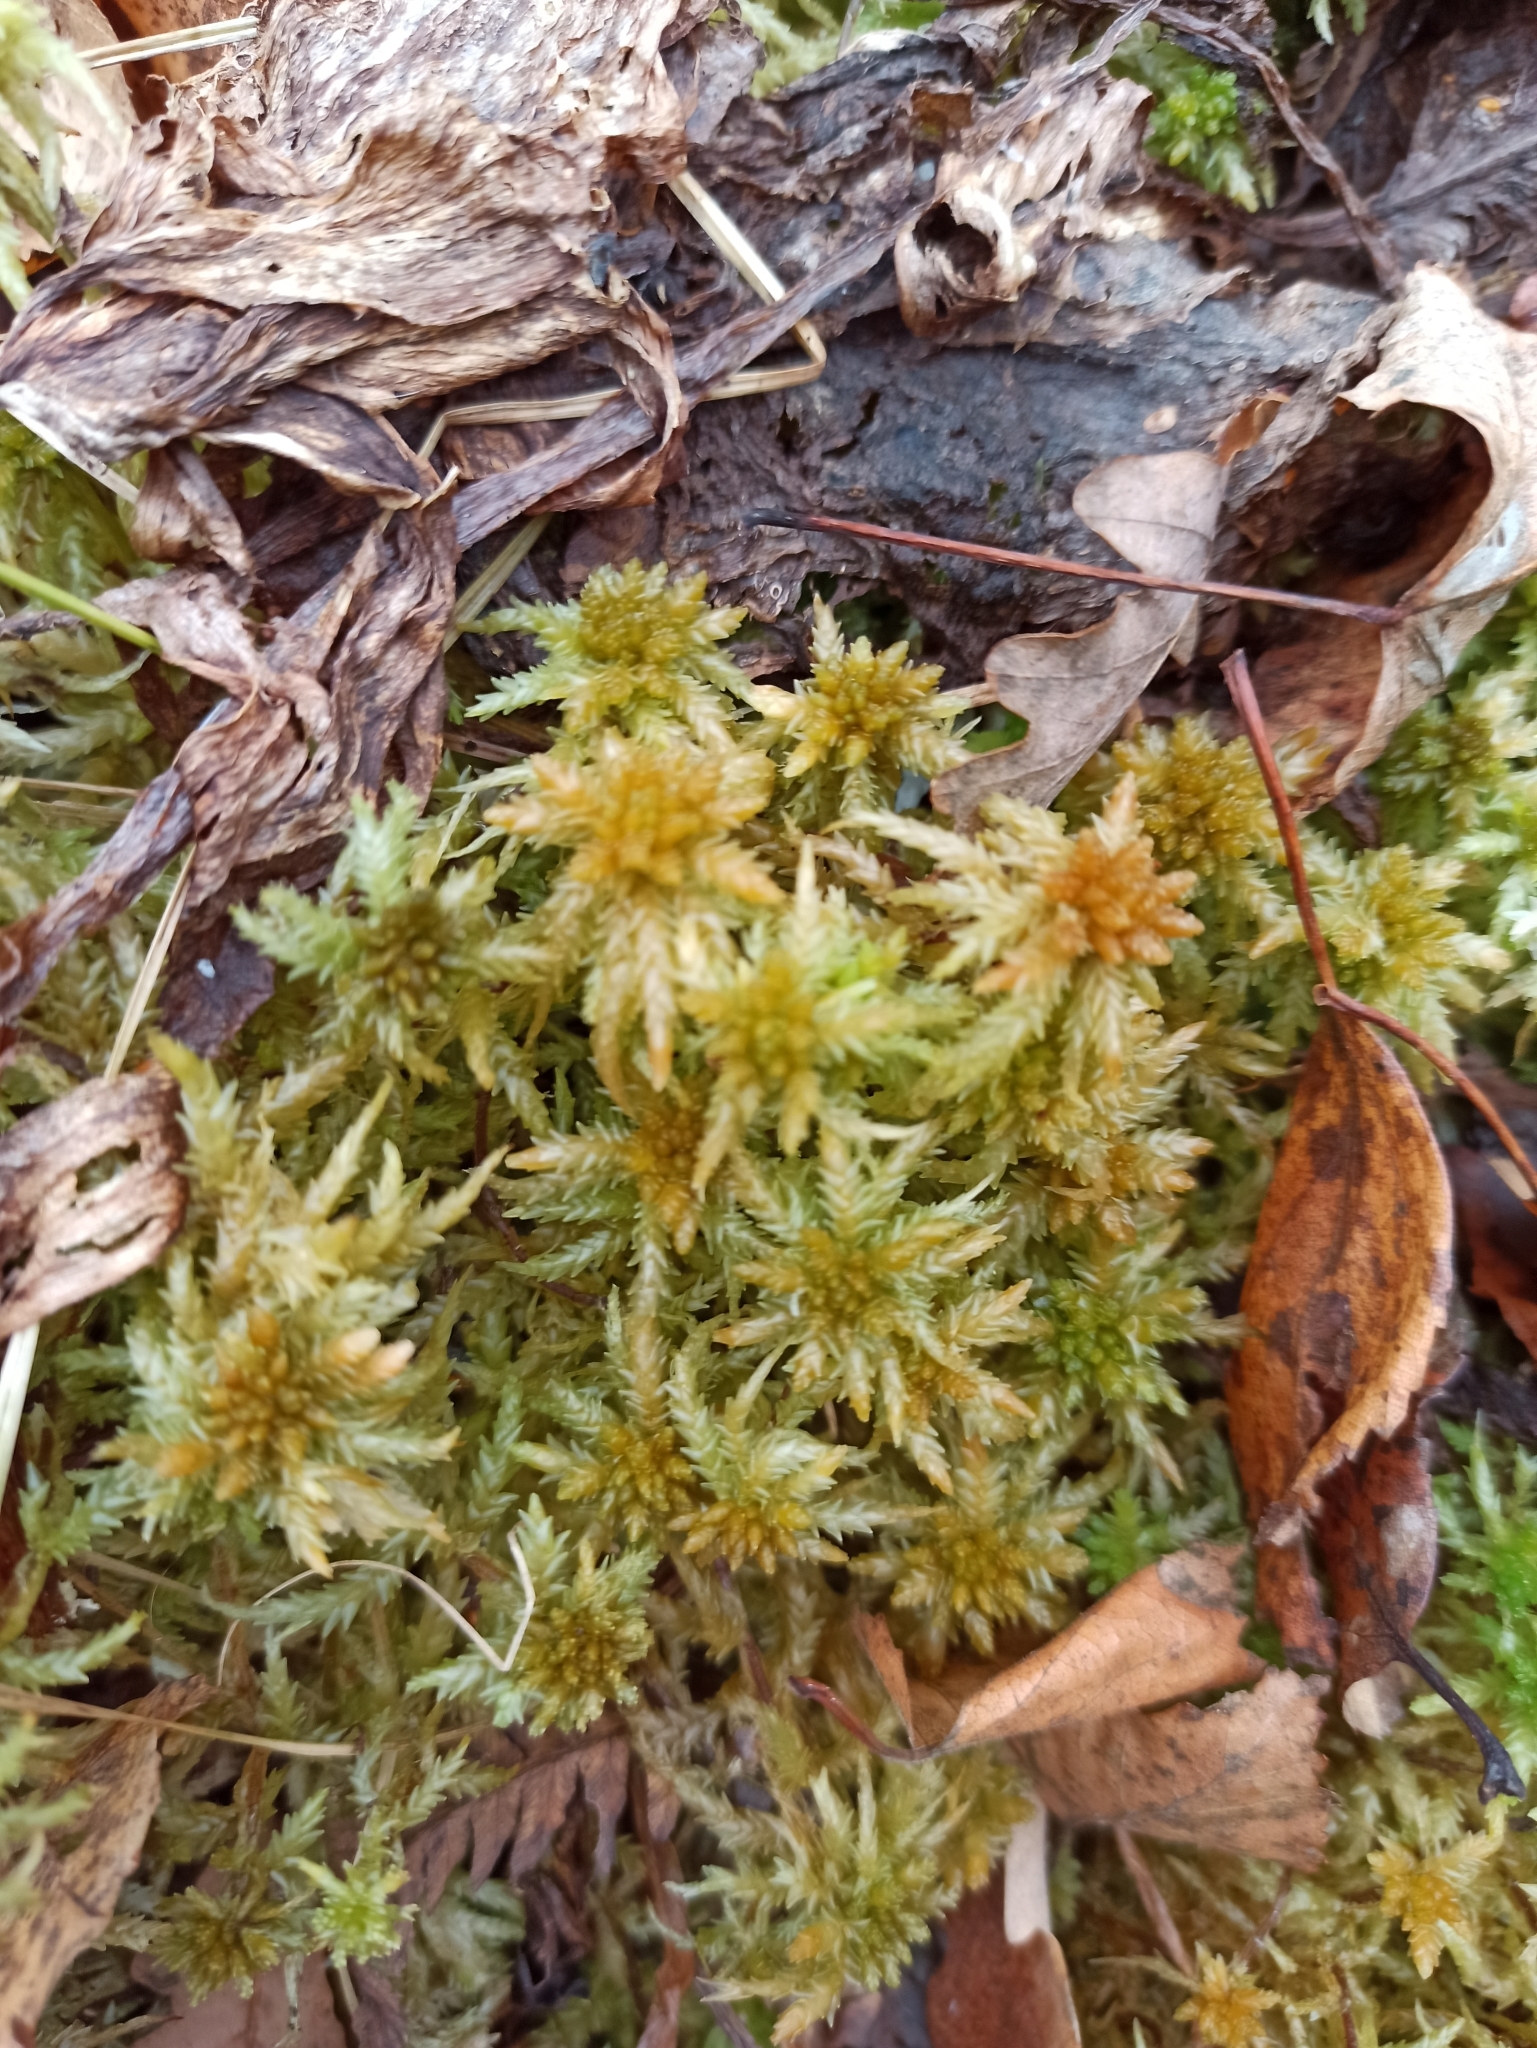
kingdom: Plantae
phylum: Bryophyta
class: Sphagnopsida
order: Sphagnales
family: Sphagnaceae
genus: Sphagnum
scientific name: Sphagnum palustre
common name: Blunt-leaved bog-moss
